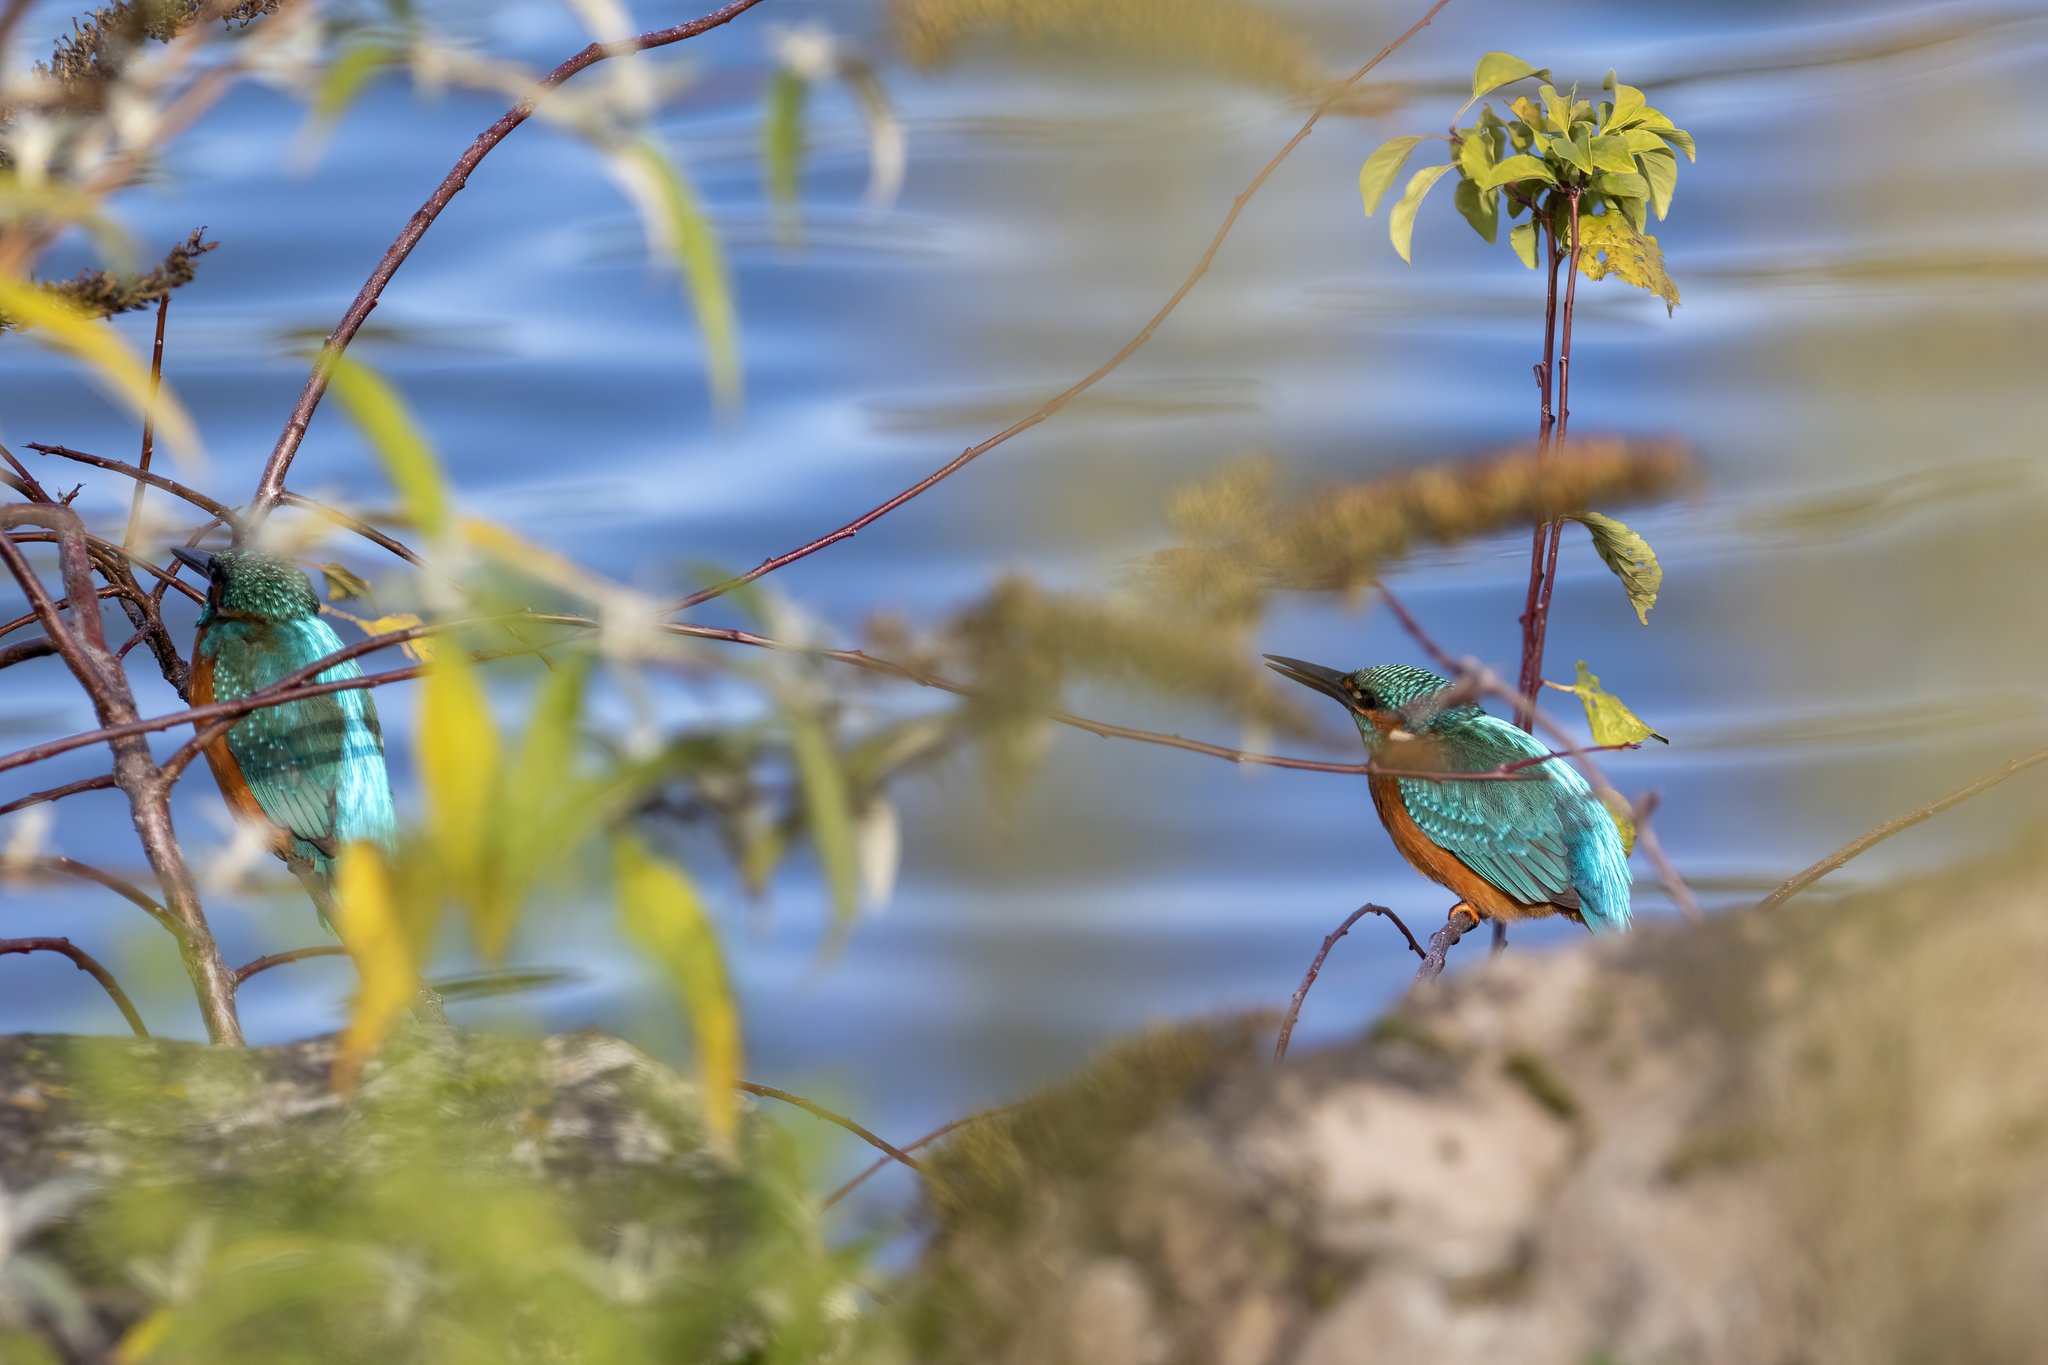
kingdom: Animalia
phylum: Chordata
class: Aves
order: Coraciiformes
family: Alcedinidae
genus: Alcedo
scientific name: Alcedo atthis
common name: Common kingfisher
